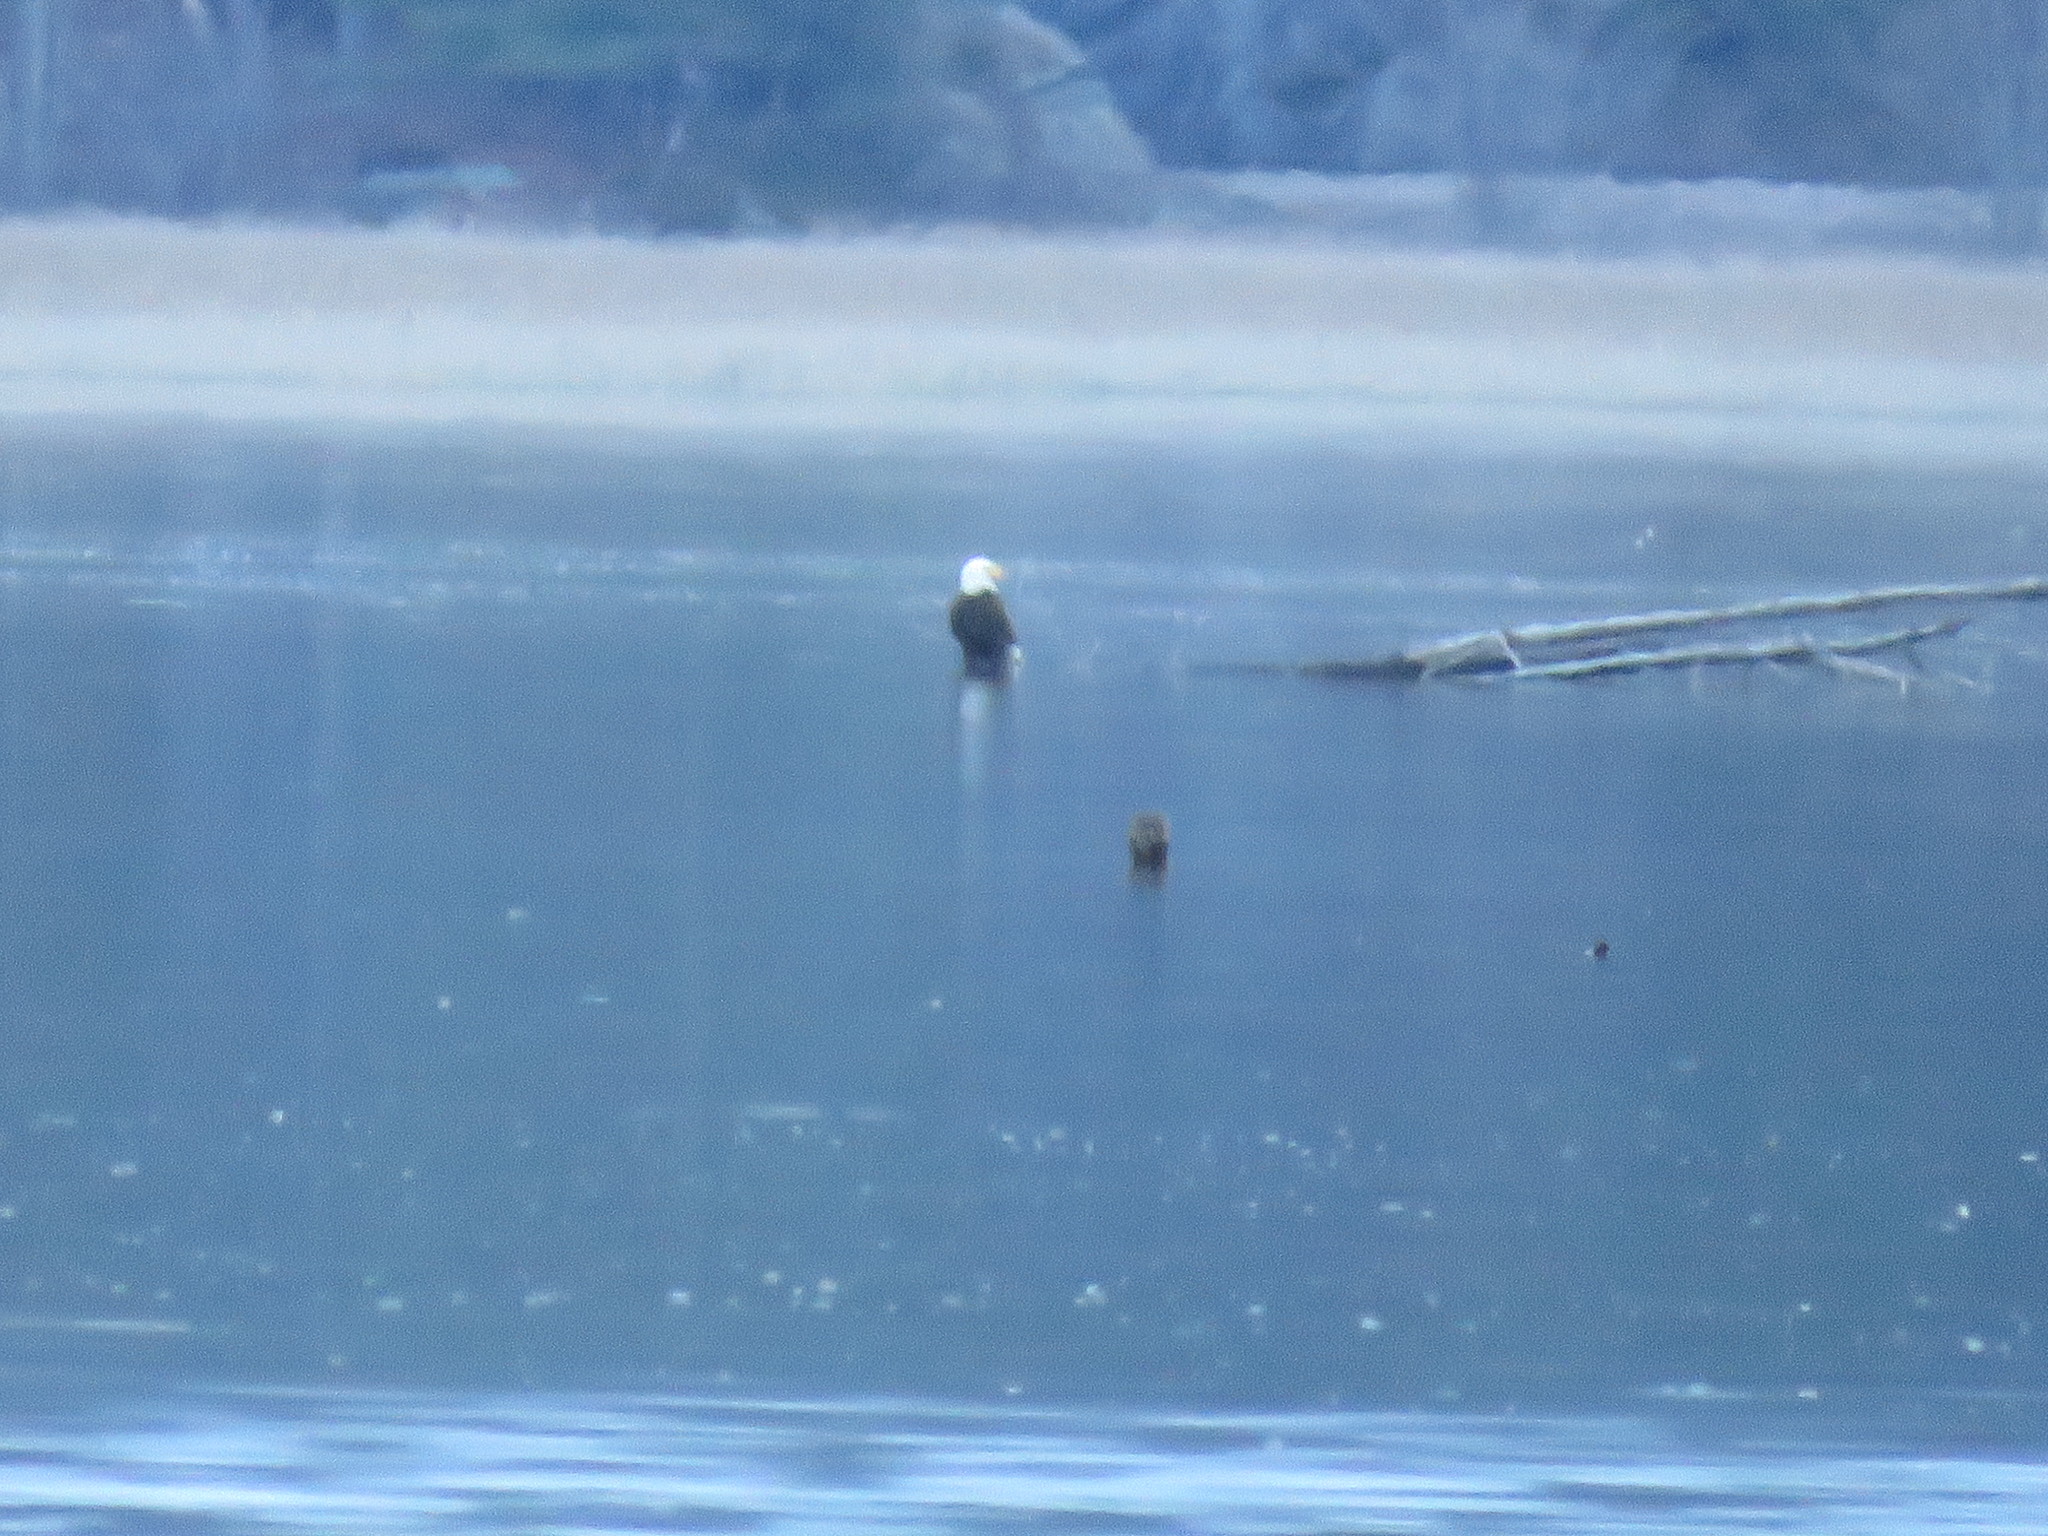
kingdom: Animalia
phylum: Chordata
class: Aves
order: Accipitriformes
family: Accipitridae
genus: Haliaeetus
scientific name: Haliaeetus leucocephalus
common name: Bald eagle
